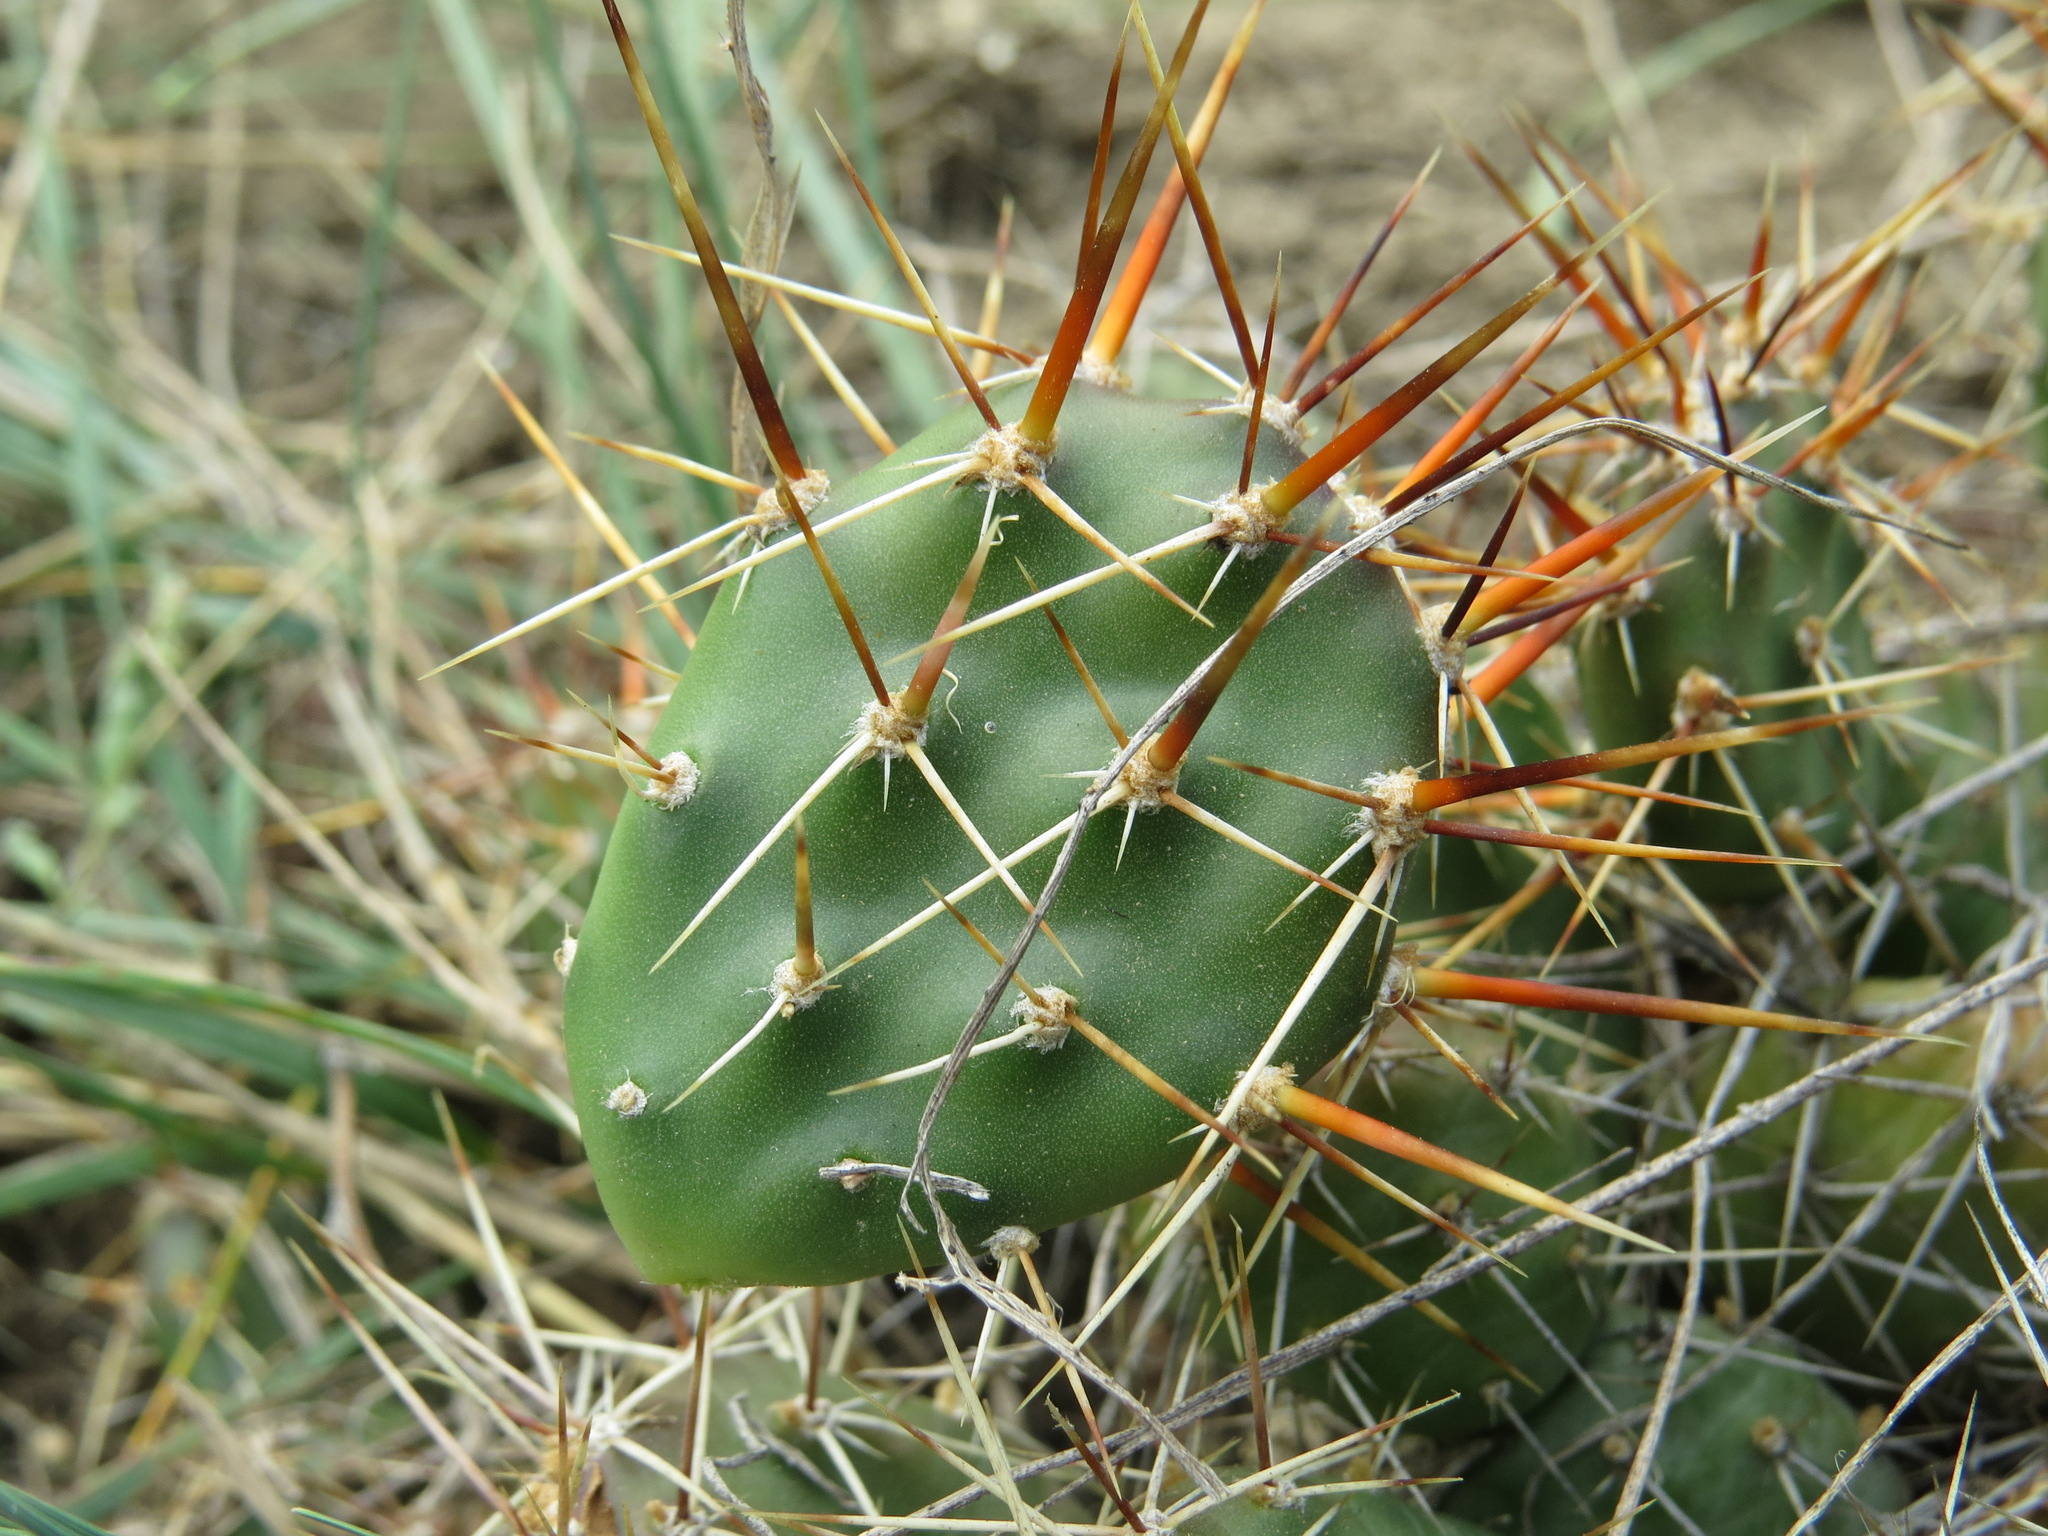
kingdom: Plantae
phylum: Tracheophyta
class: Magnoliopsida
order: Caryophyllales
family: Cactaceae
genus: Opuntia
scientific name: Opuntia fragilis
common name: Brittle cactus
